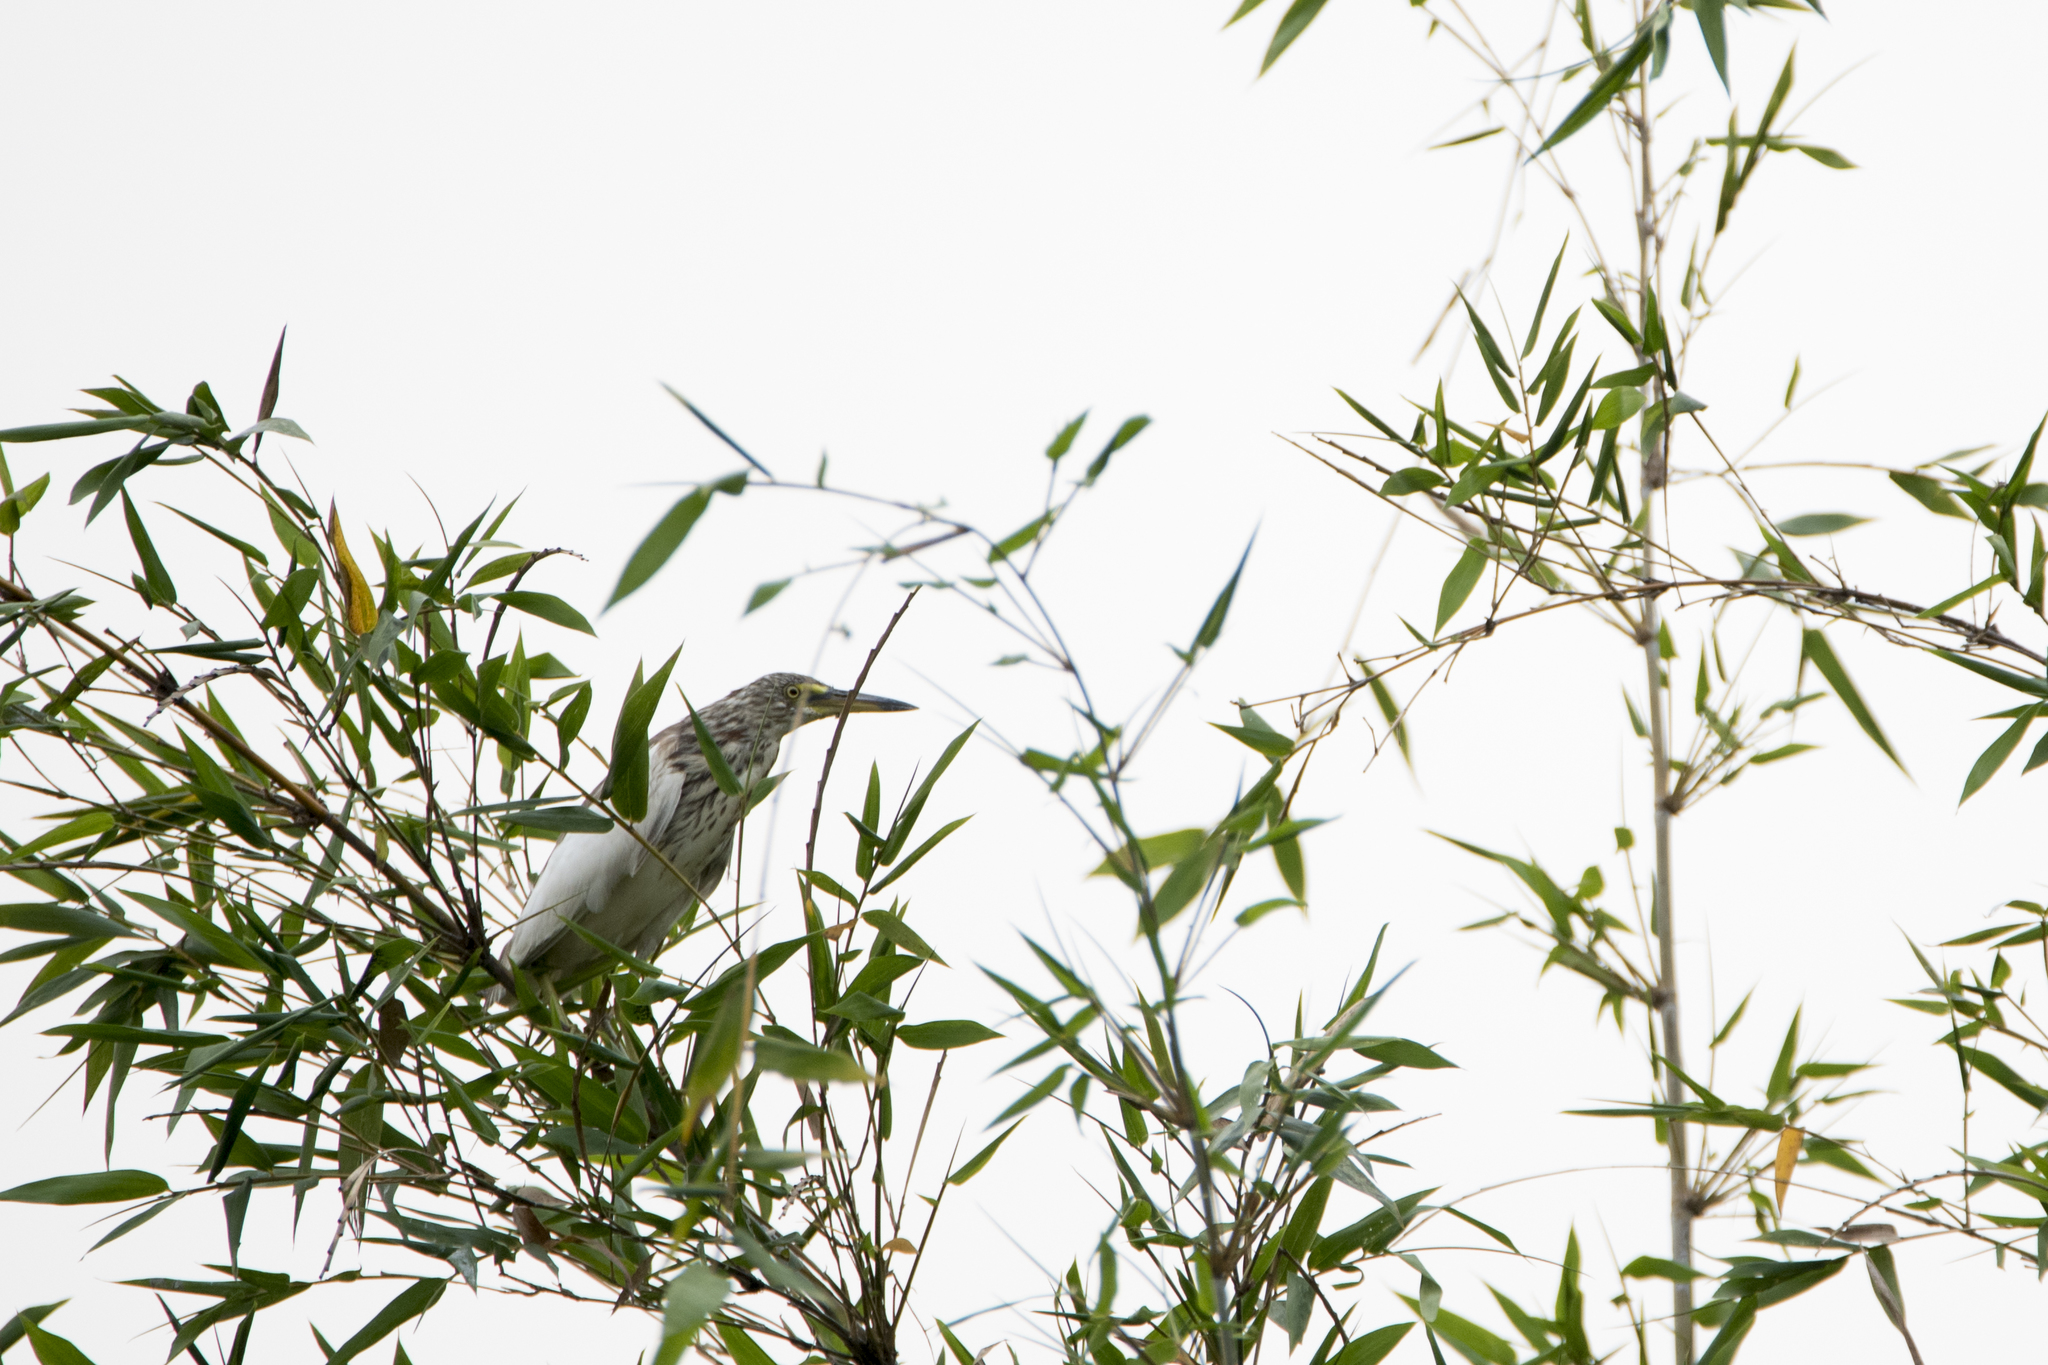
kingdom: Animalia
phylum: Chordata
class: Aves
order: Pelecaniformes
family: Ardeidae
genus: Ardeola
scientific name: Ardeola bacchus
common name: Chinese pond heron
